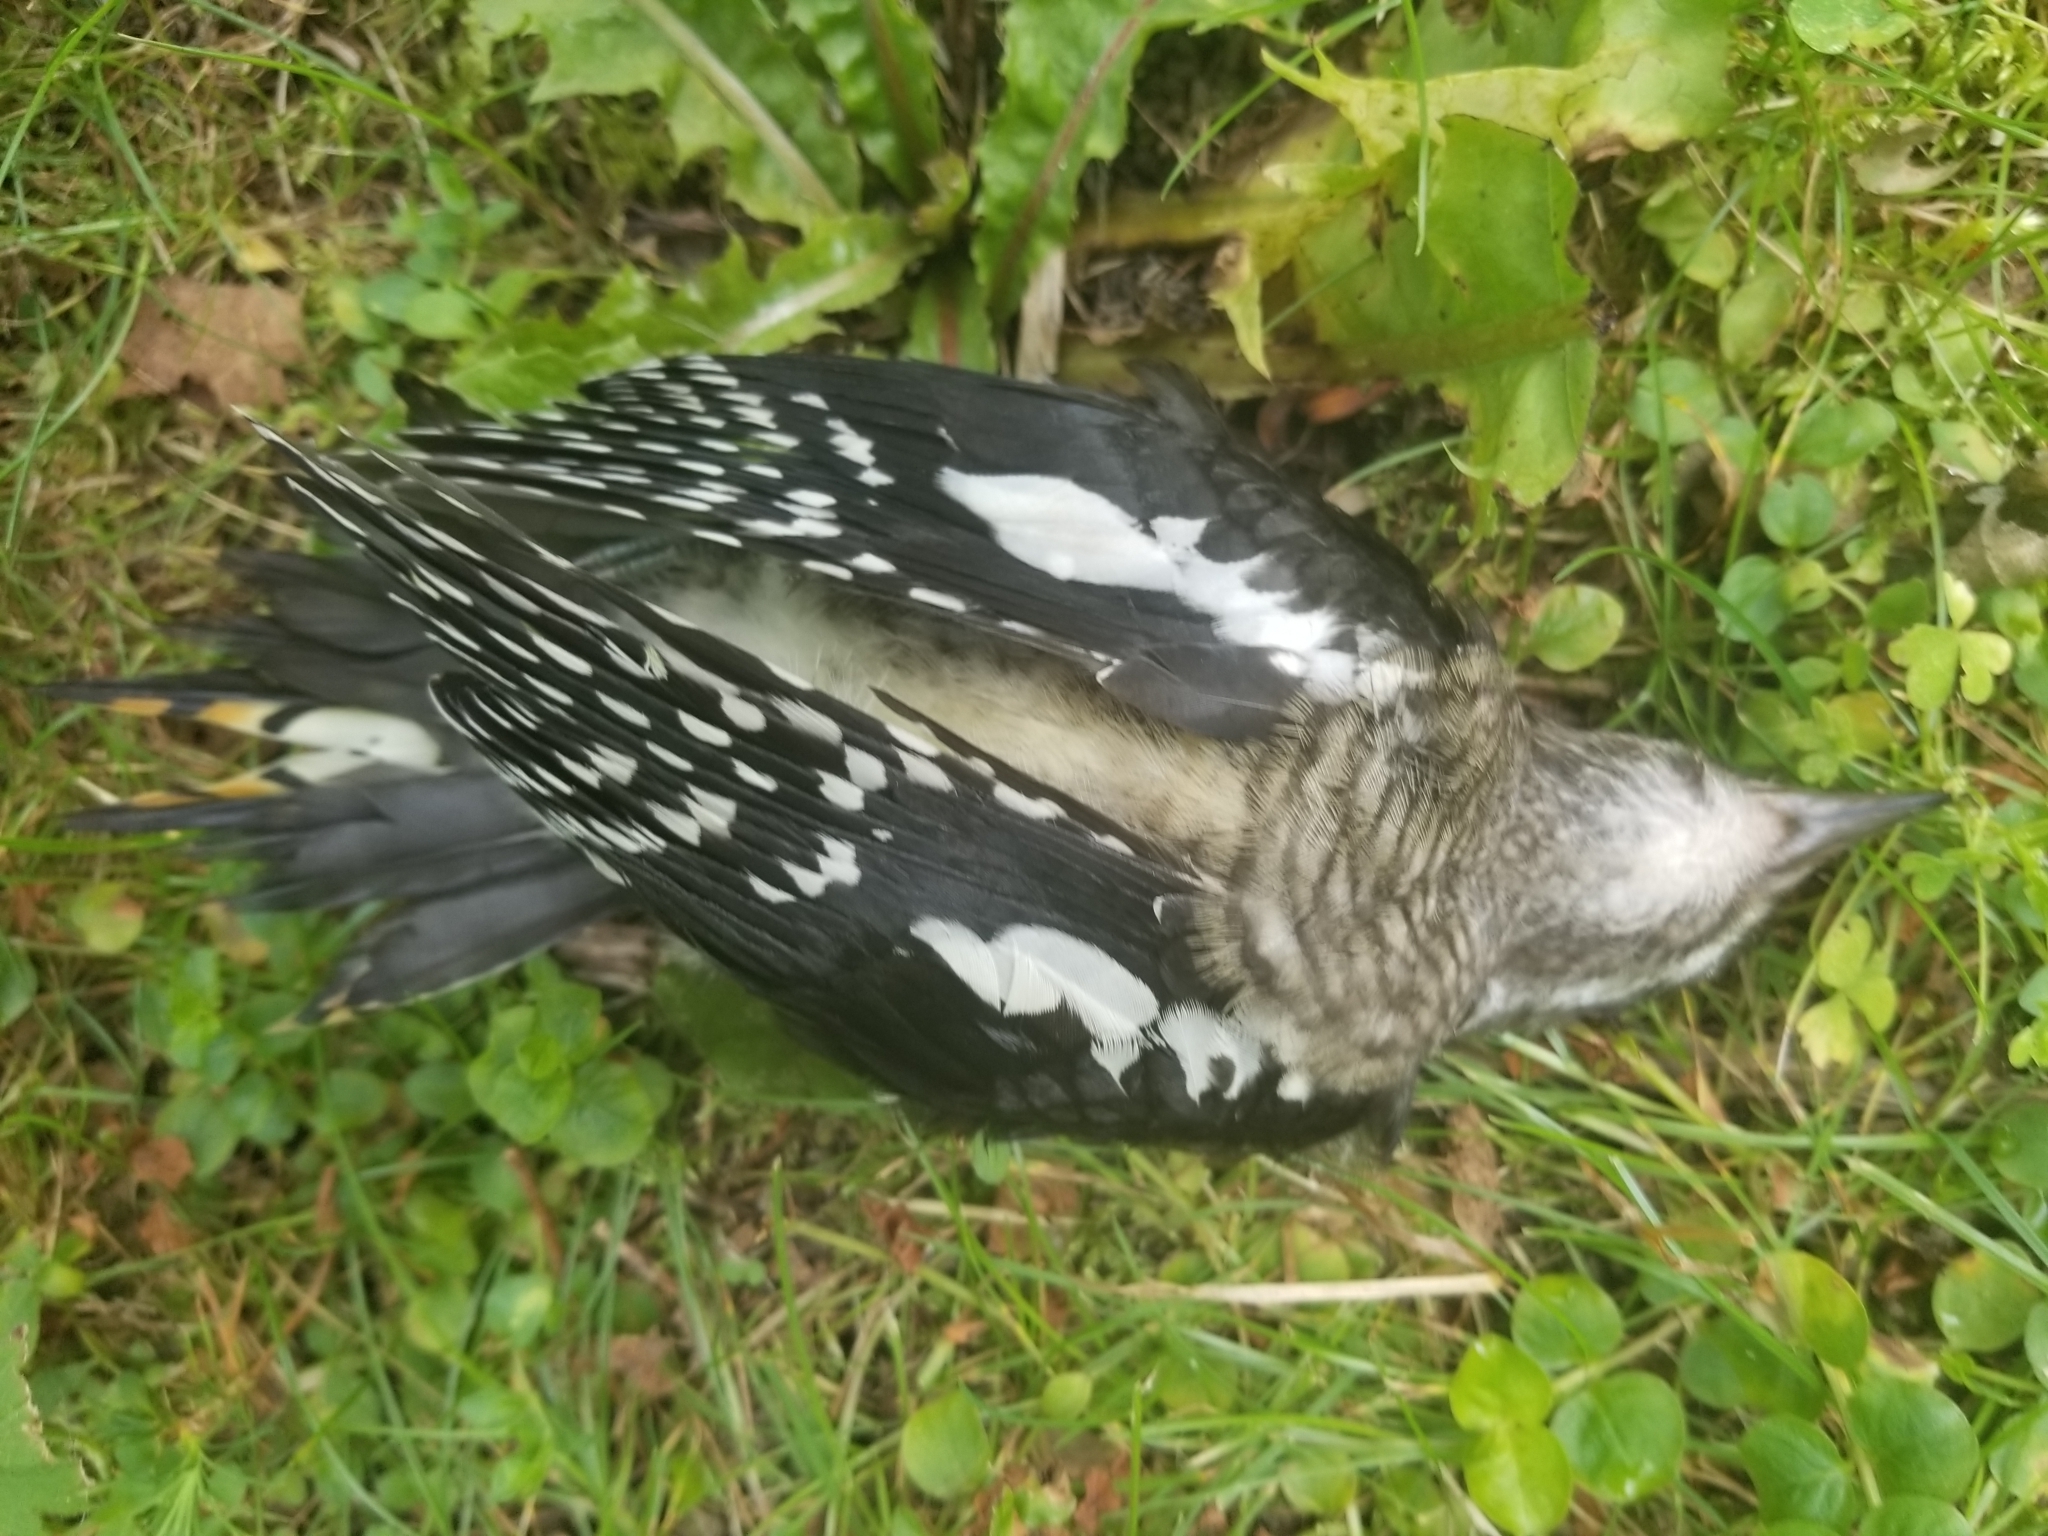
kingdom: Animalia
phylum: Chordata
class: Aves
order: Piciformes
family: Picidae
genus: Sphyrapicus
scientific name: Sphyrapicus varius
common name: Yellow-bellied sapsucker
